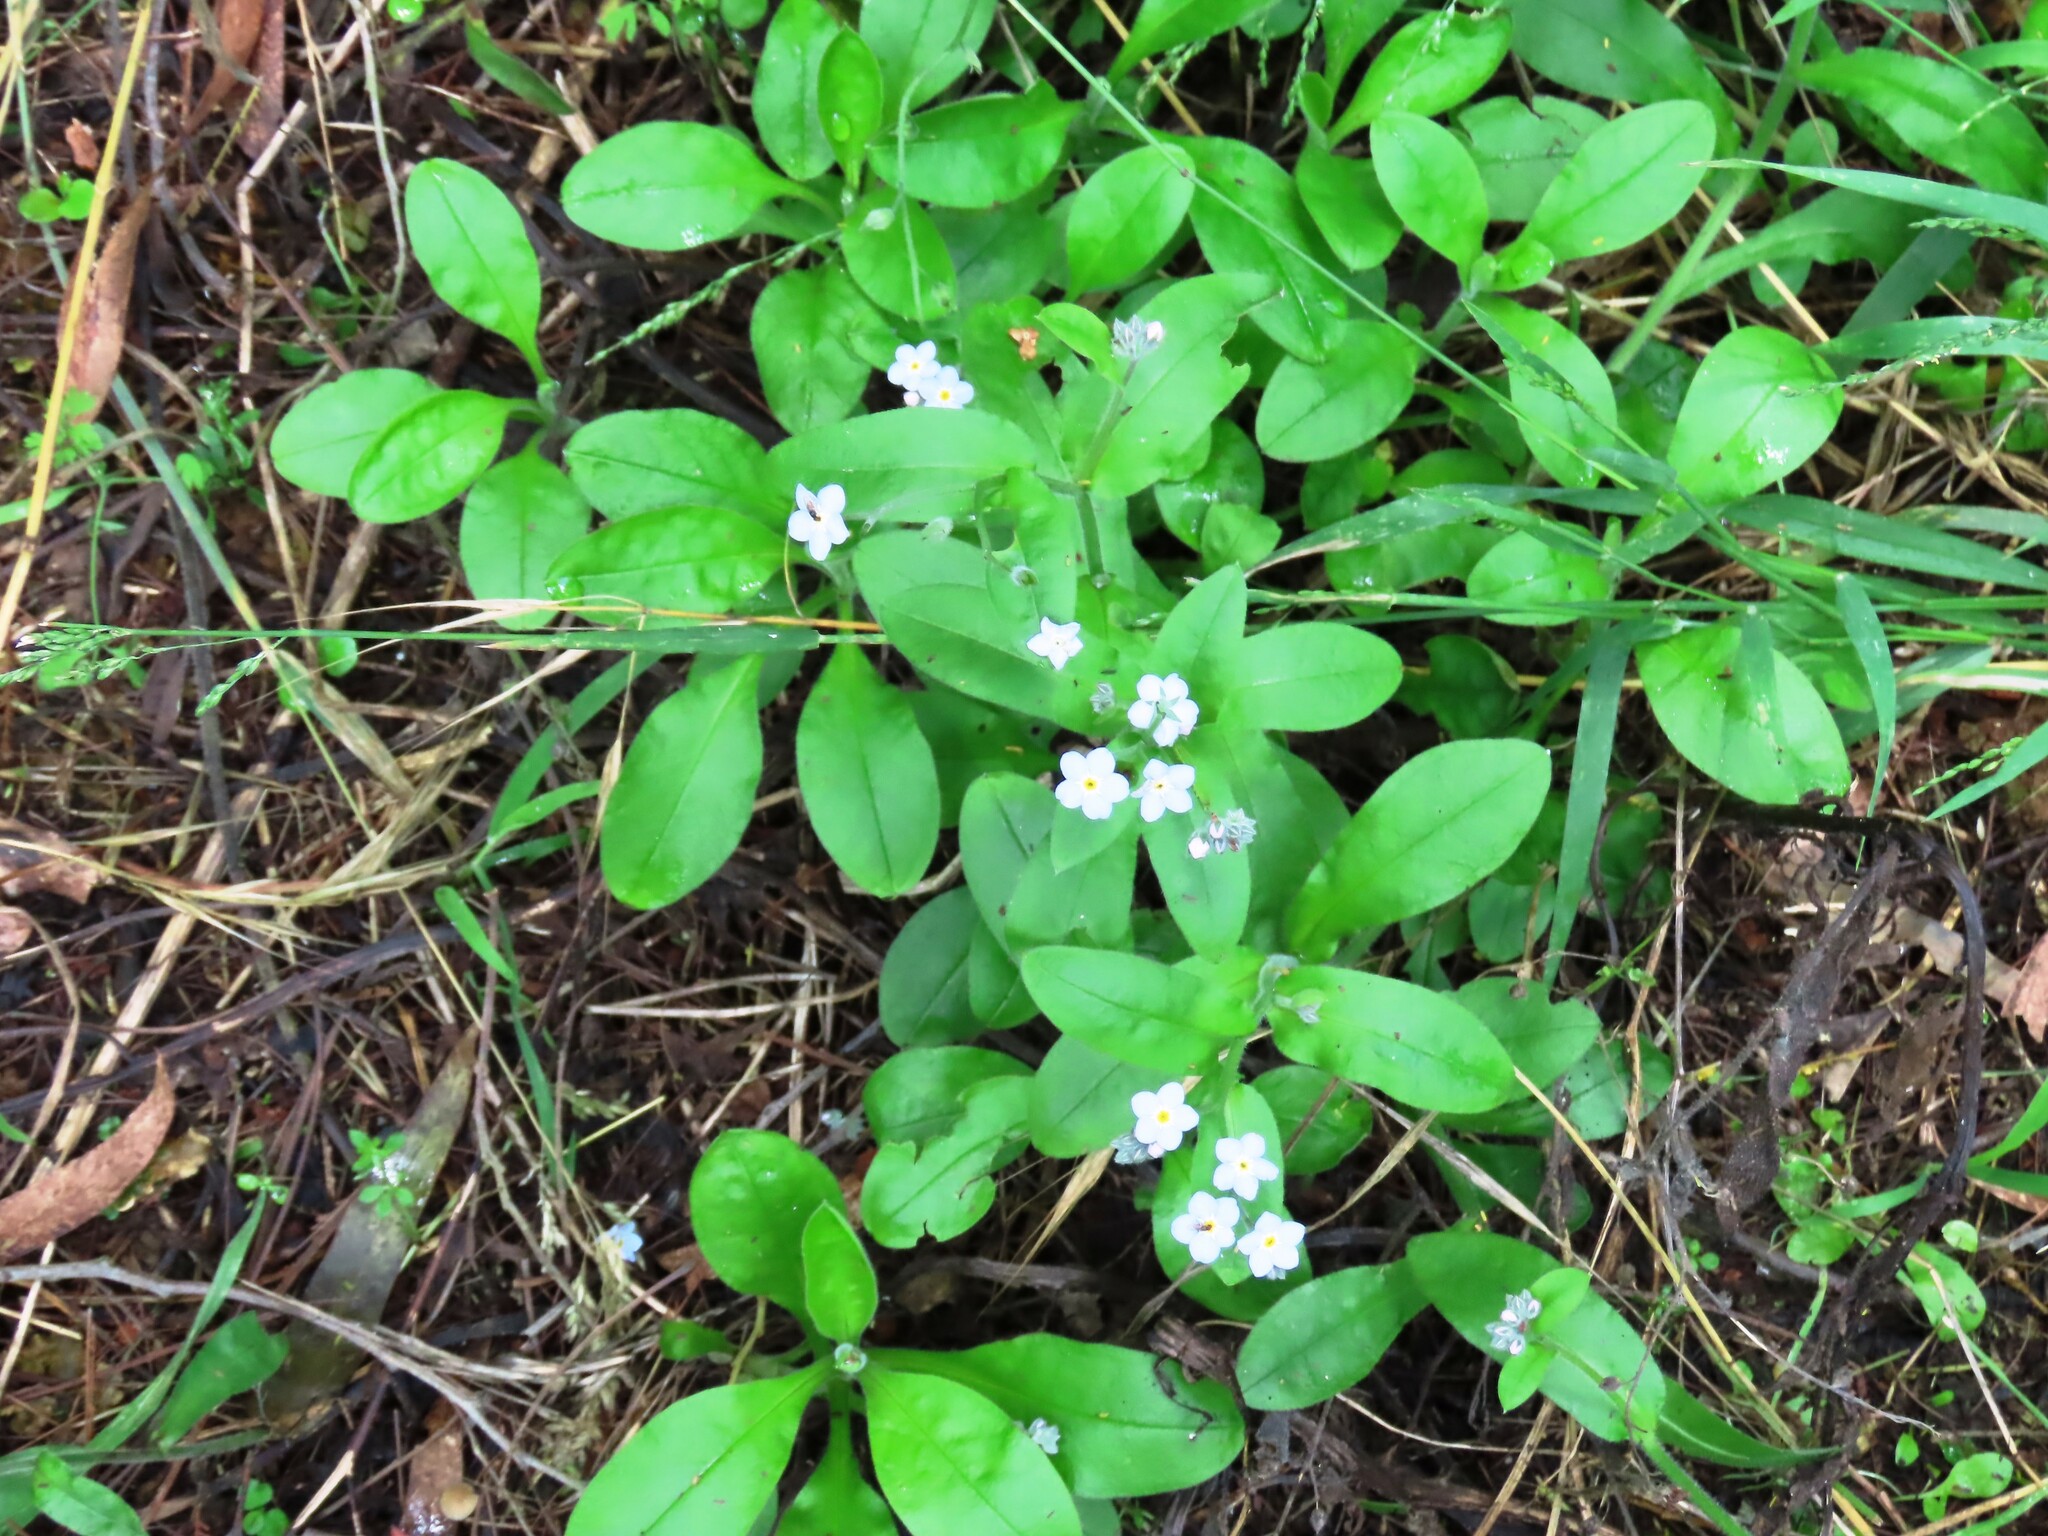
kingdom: Plantae
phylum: Tracheophyta
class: Magnoliopsida
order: Boraginales
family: Boraginaceae
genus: Myosotis
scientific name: Myosotis sylvatica
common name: Wood forget-me-not
